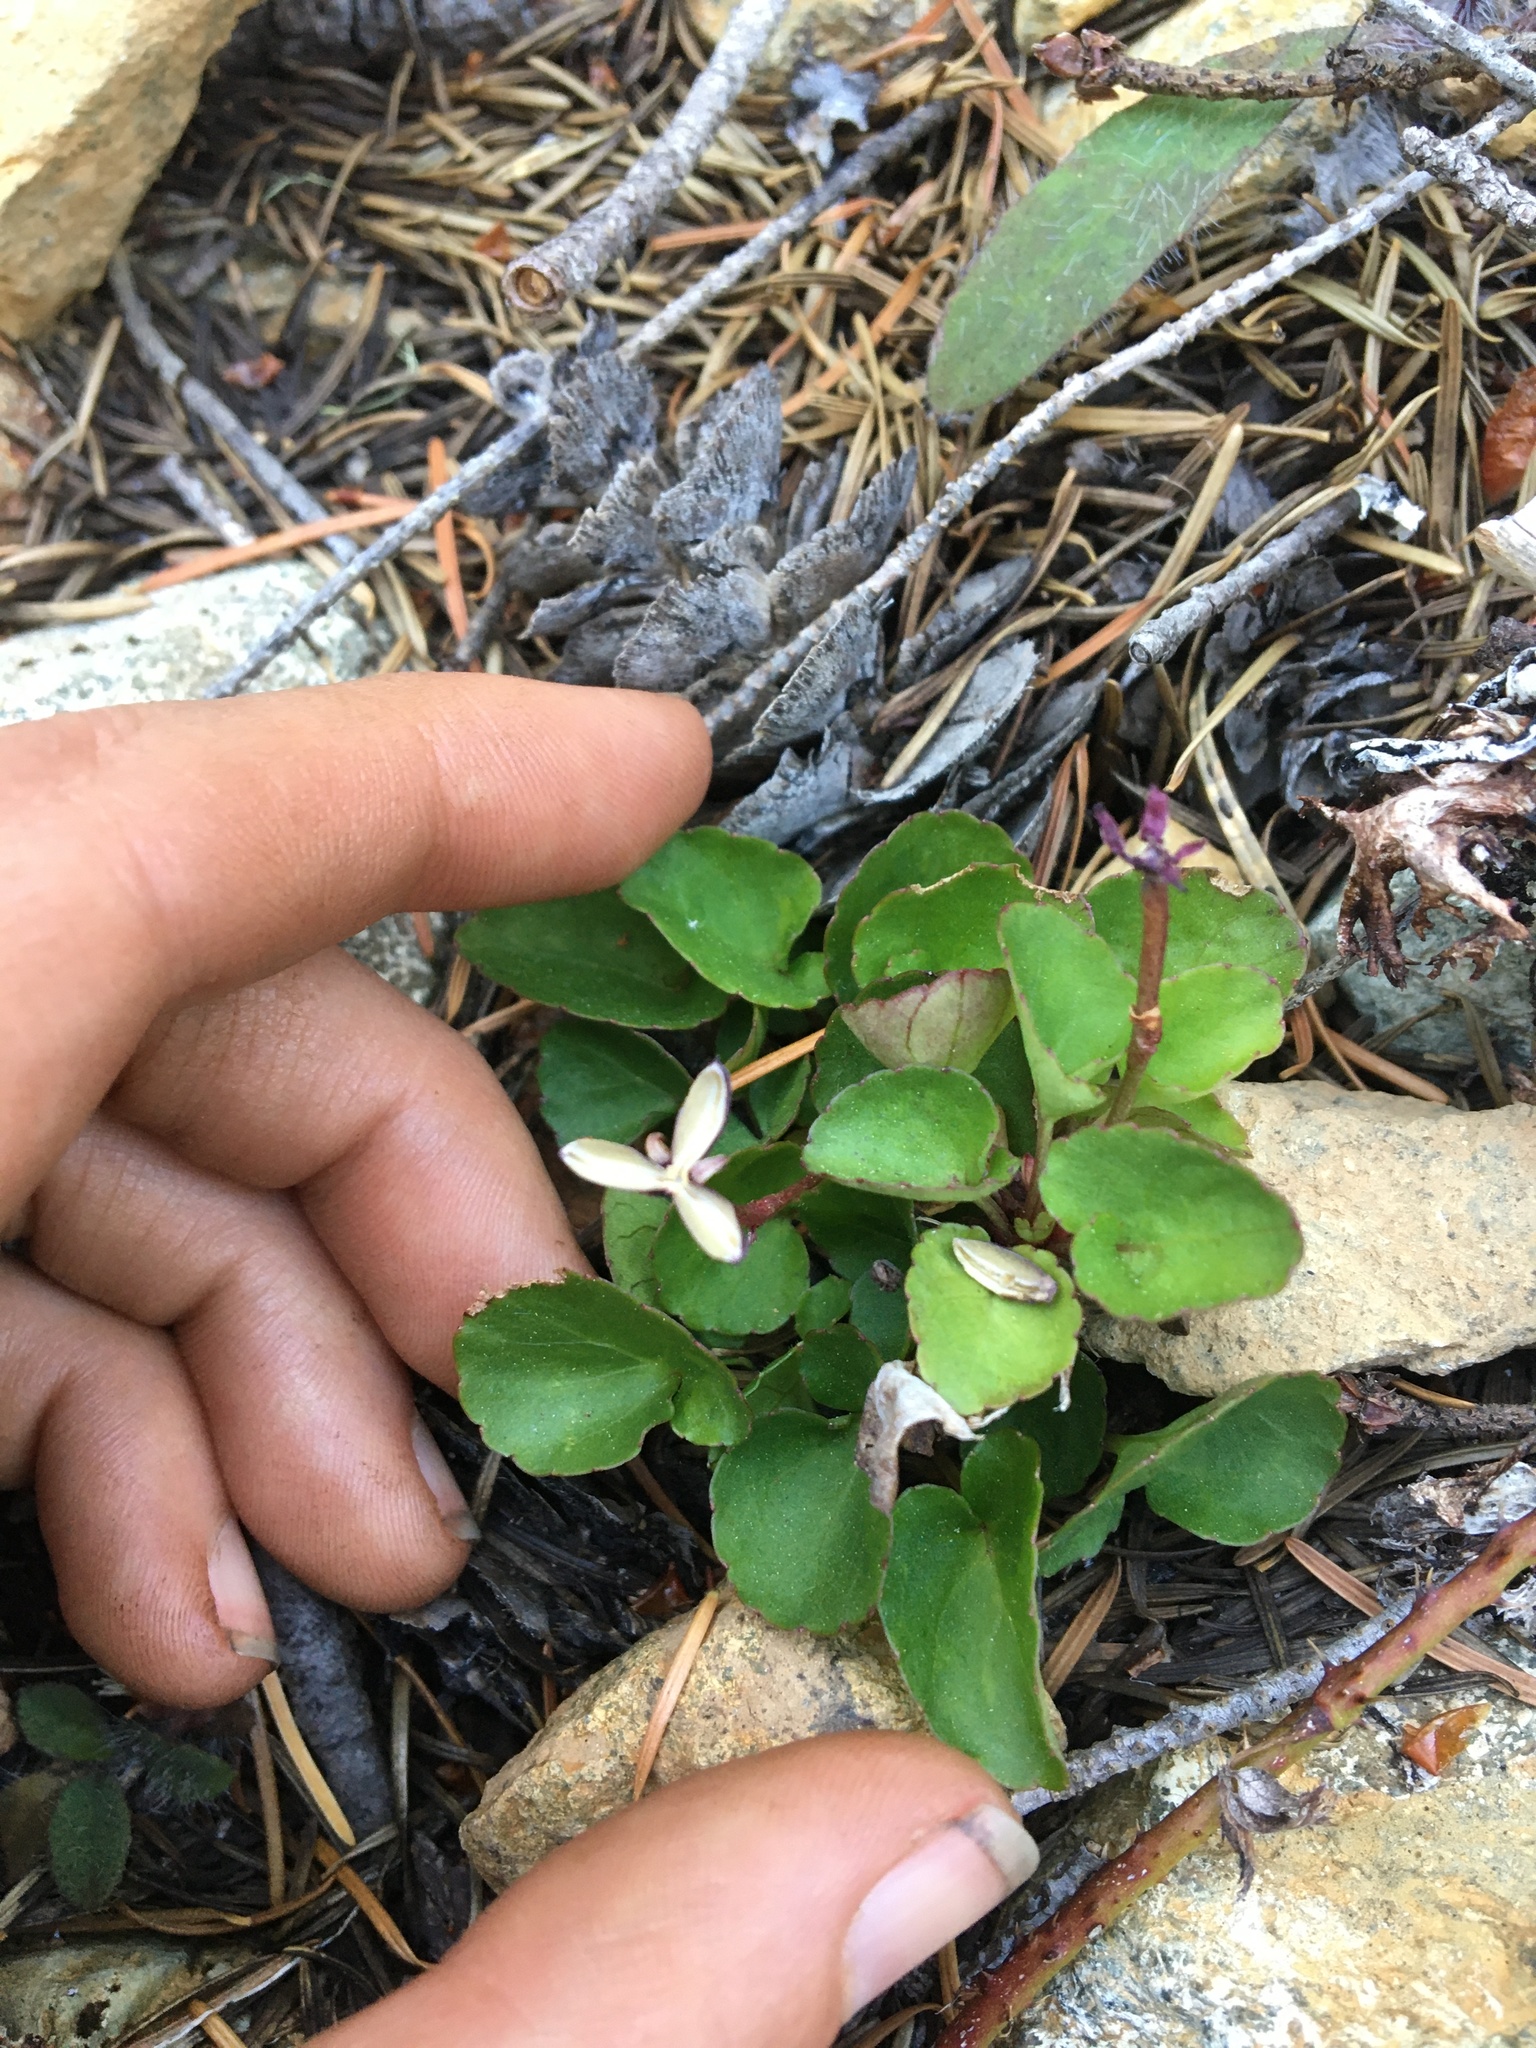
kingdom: Plantae
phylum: Tracheophyta
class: Magnoliopsida
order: Malpighiales
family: Violaceae
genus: Viola
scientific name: Viola sempervirens
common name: Evergreen violet
